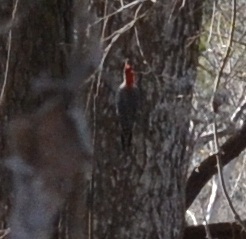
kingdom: Animalia
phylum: Chordata
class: Aves
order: Piciformes
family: Picidae
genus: Melanerpes
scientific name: Melanerpes carolinus
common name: Red-bellied woodpecker
